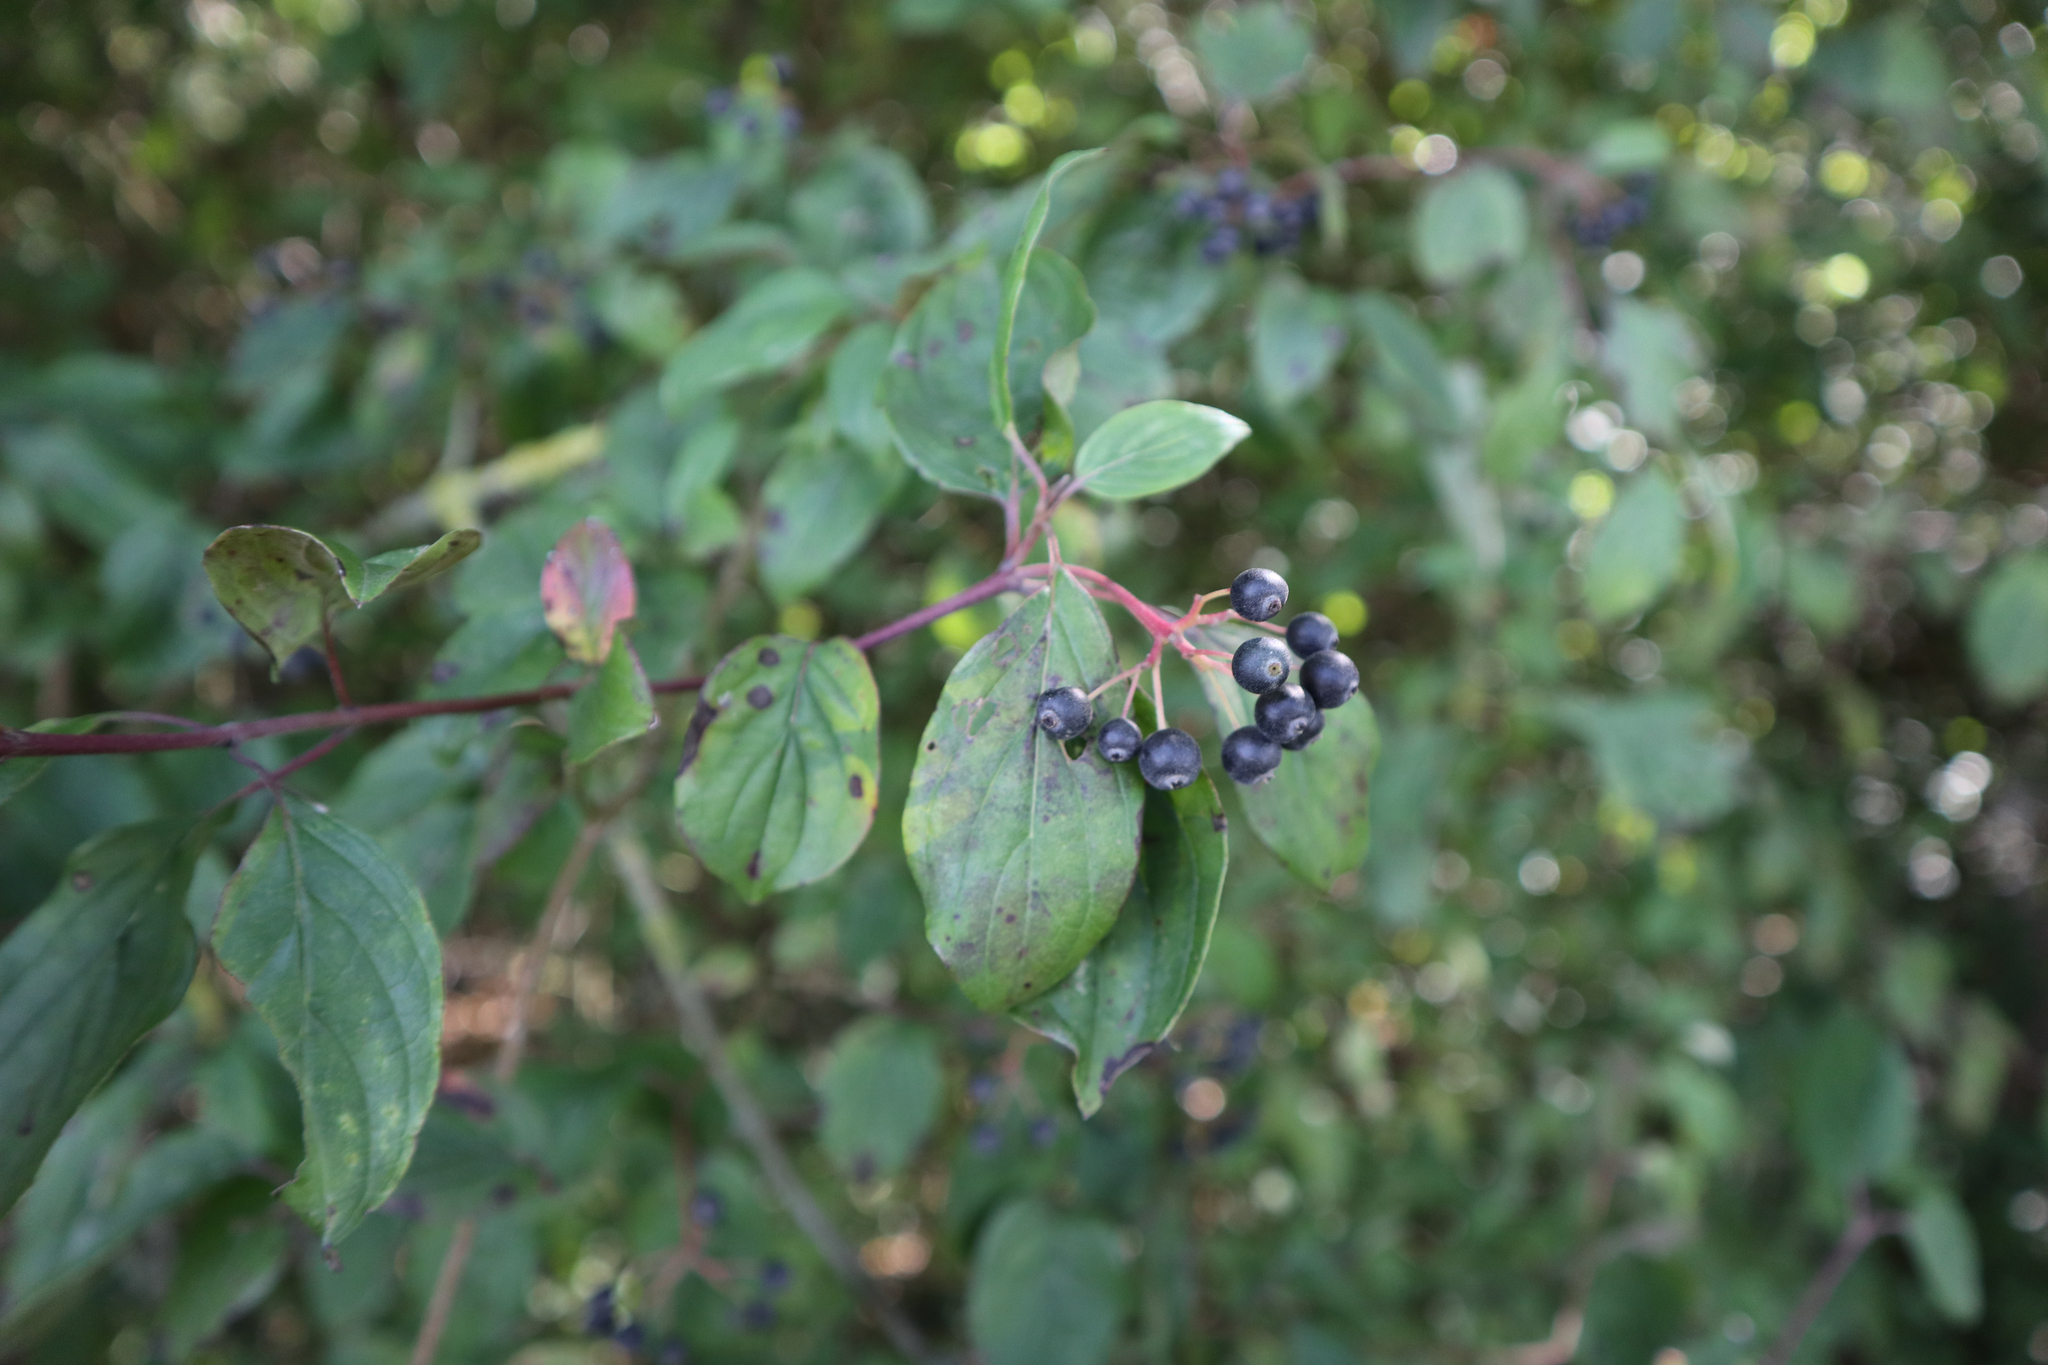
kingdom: Plantae
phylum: Tracheophyta
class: Magnoliopsida
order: Cornales
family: Cornaceae
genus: Cornus
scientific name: Cornus sanguinea
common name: Dogwood
